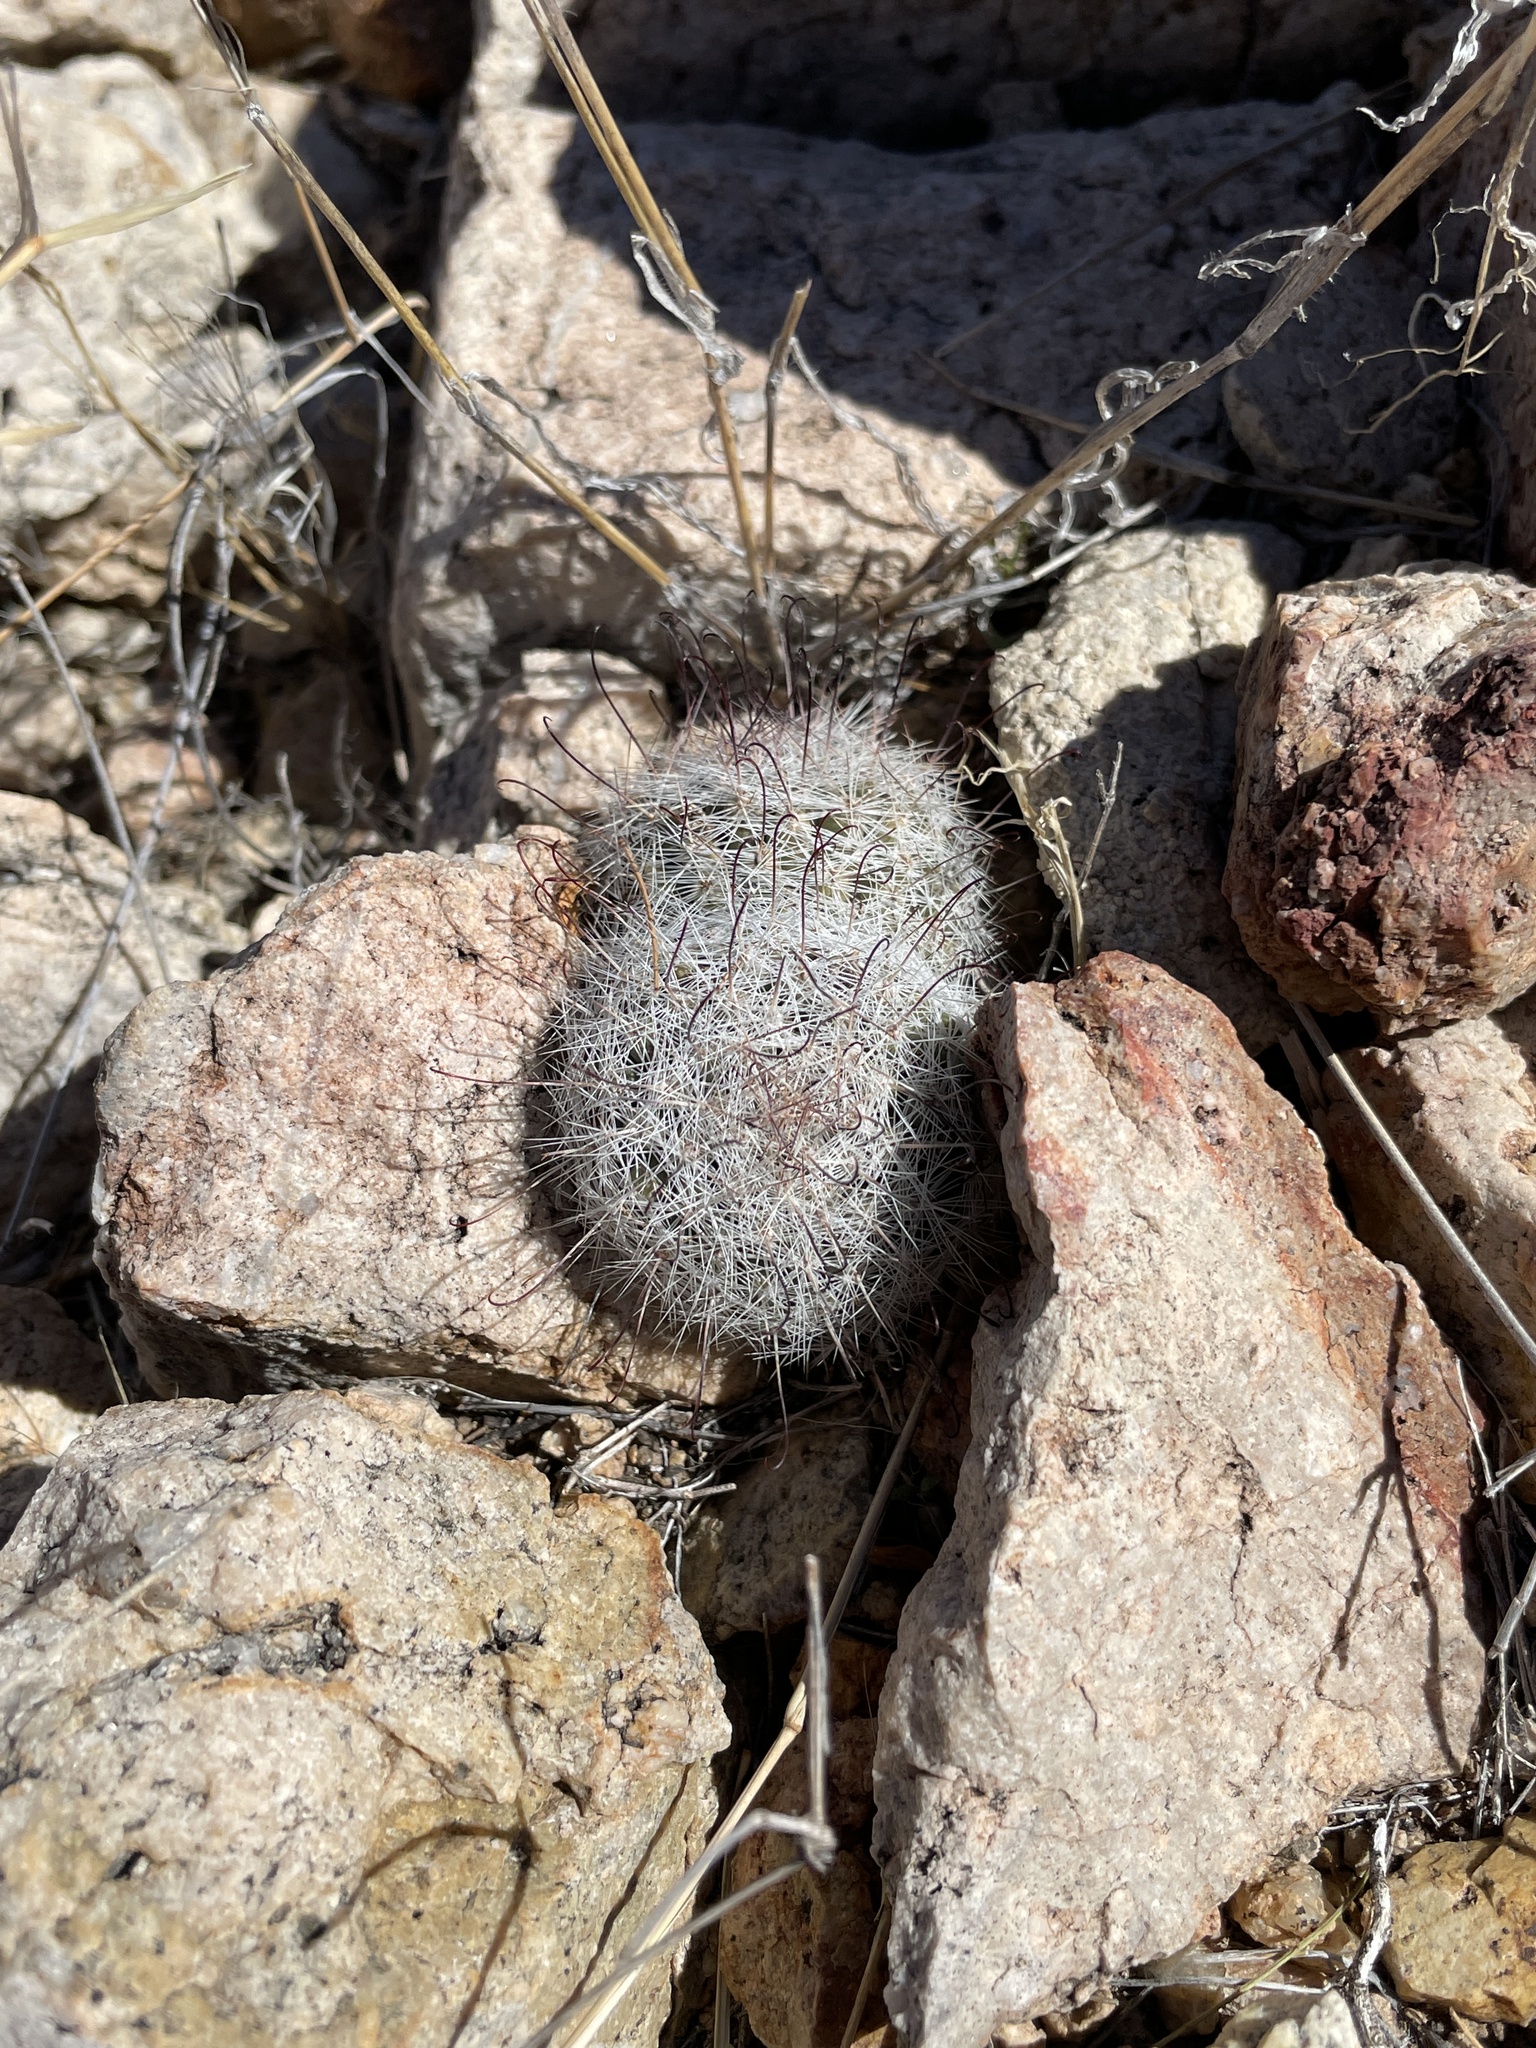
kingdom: Plantae
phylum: Tracheophyta
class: Magnoliopsida
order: Caryophyllales
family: Cactaceae
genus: Cochemiea
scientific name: Cochemiea grahamii
